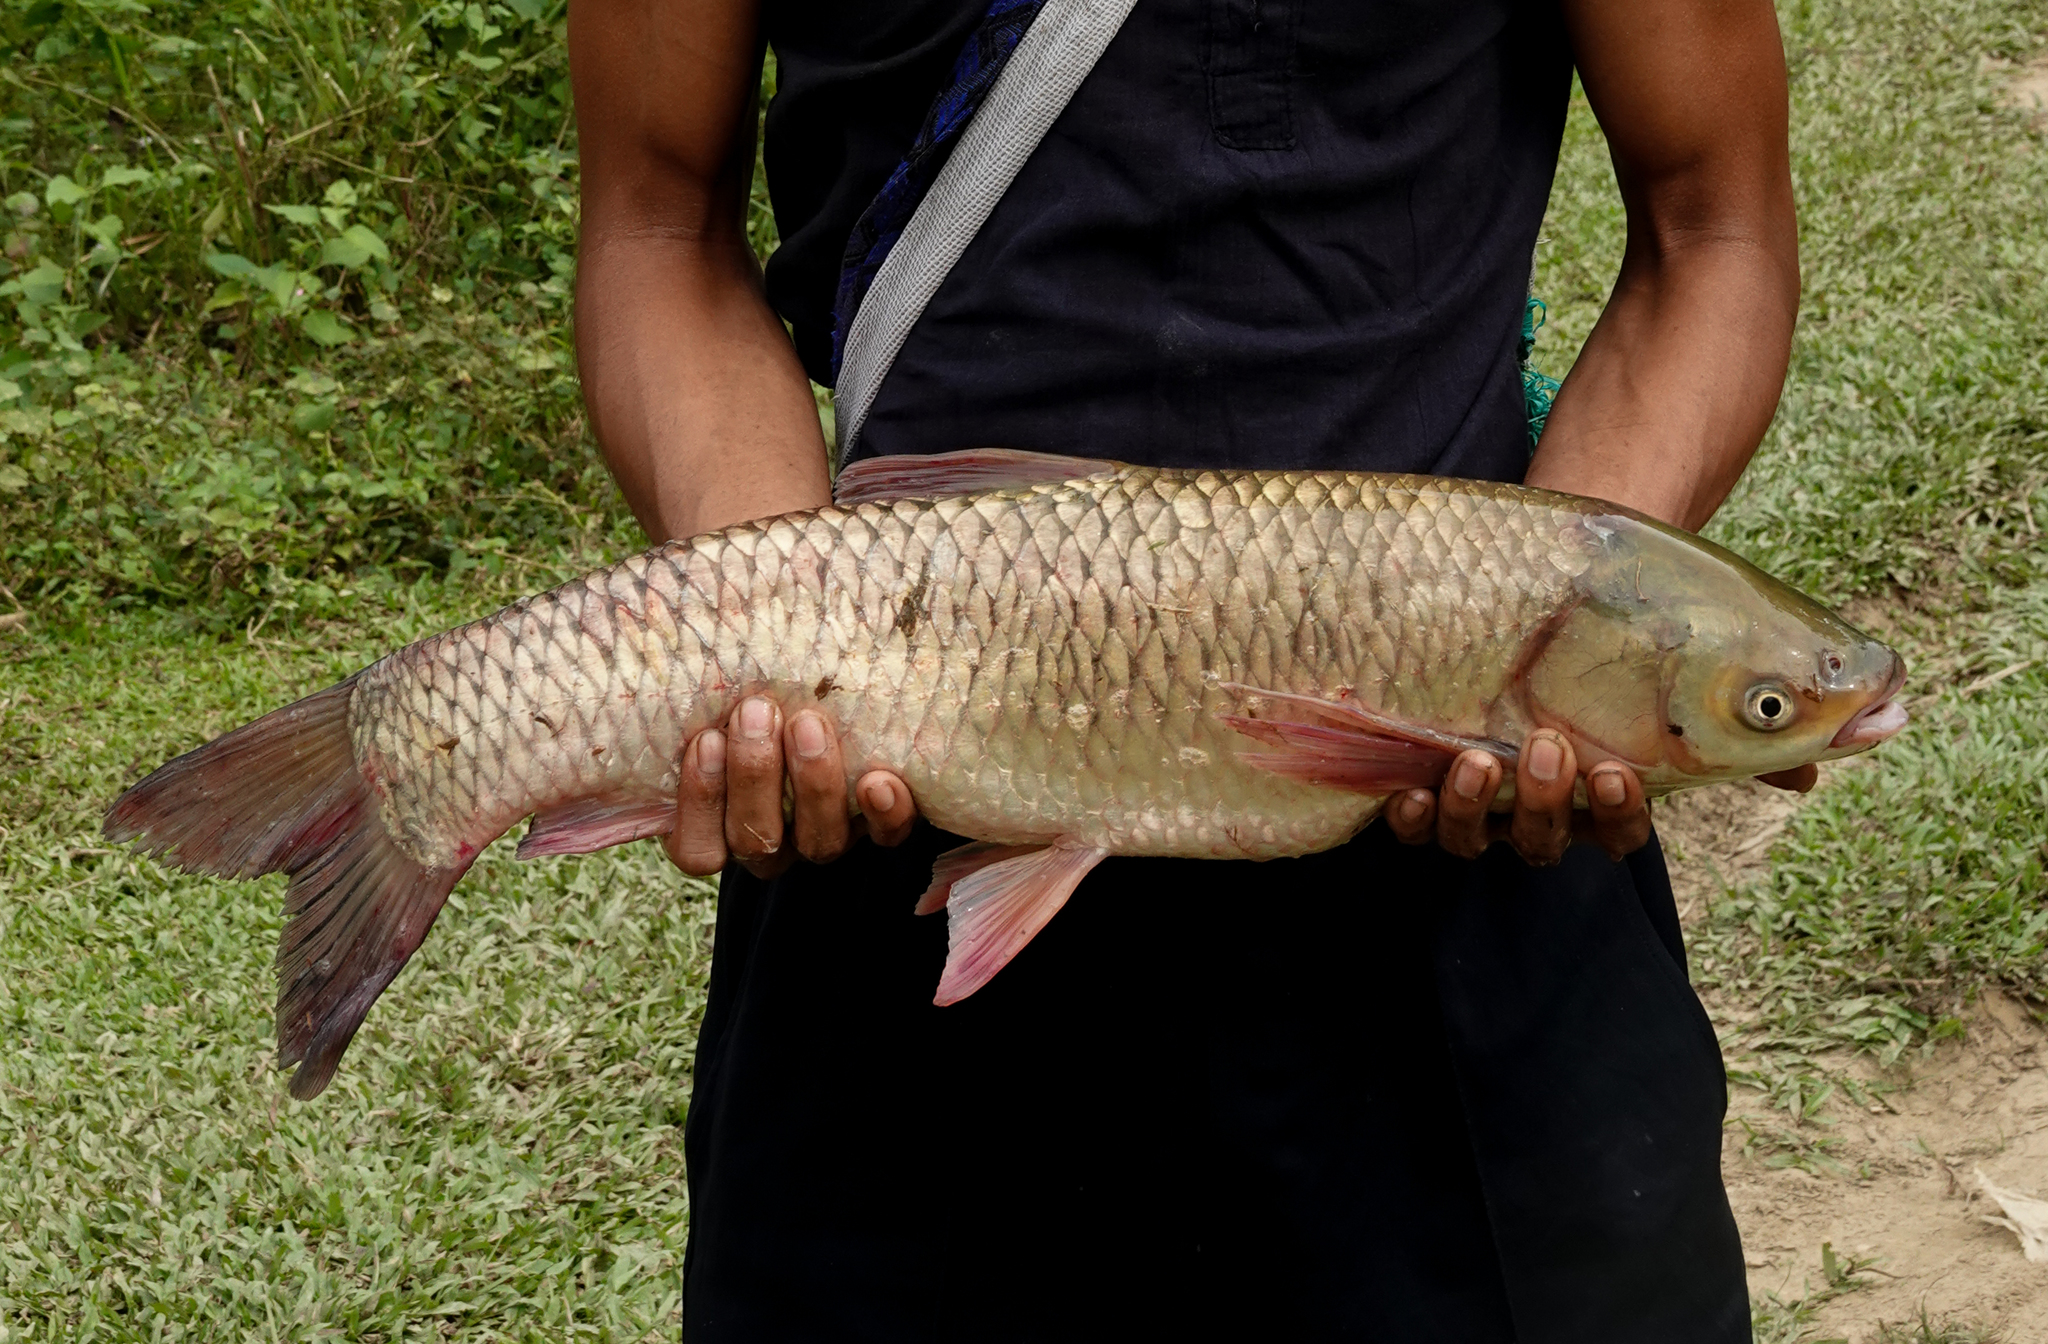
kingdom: Animalia
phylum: Chordata
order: Cypriniformes
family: Cyprinidae
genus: Ctenopharyngodon
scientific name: Ctenopharyngodon idella
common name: Grass carp
